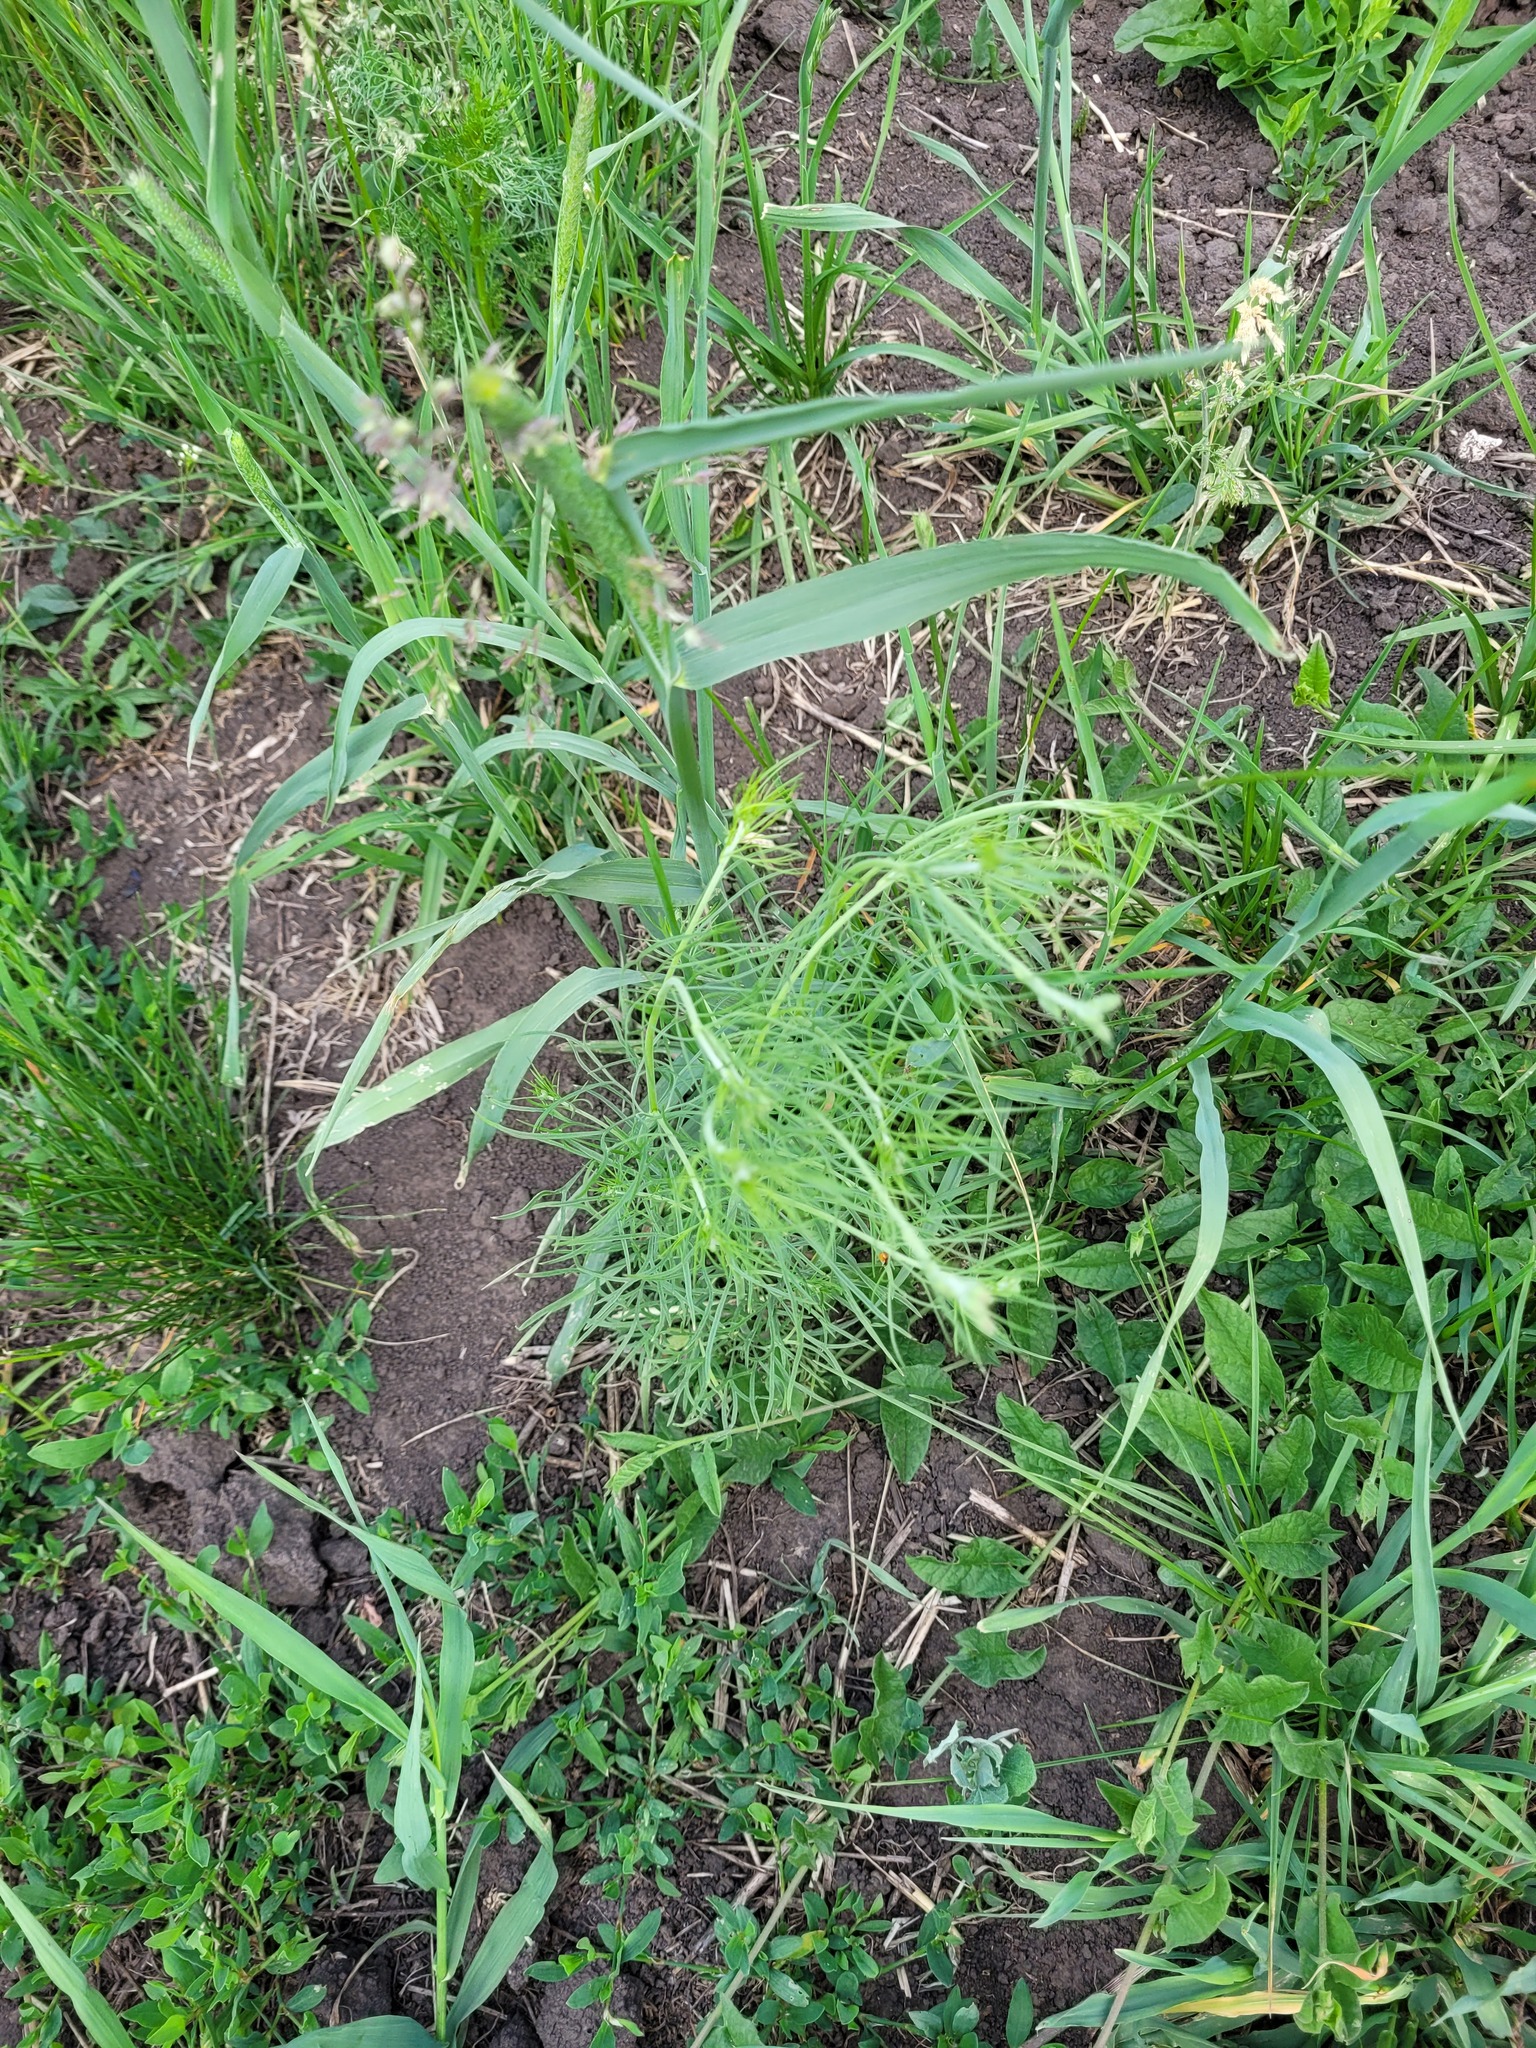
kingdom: Plantae
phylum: Tracheophyta
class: Magnoliopsida
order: Ranunculales
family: Ranunculaceae
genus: Delphinium
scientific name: Delphinium consolida
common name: Branching larkspur
